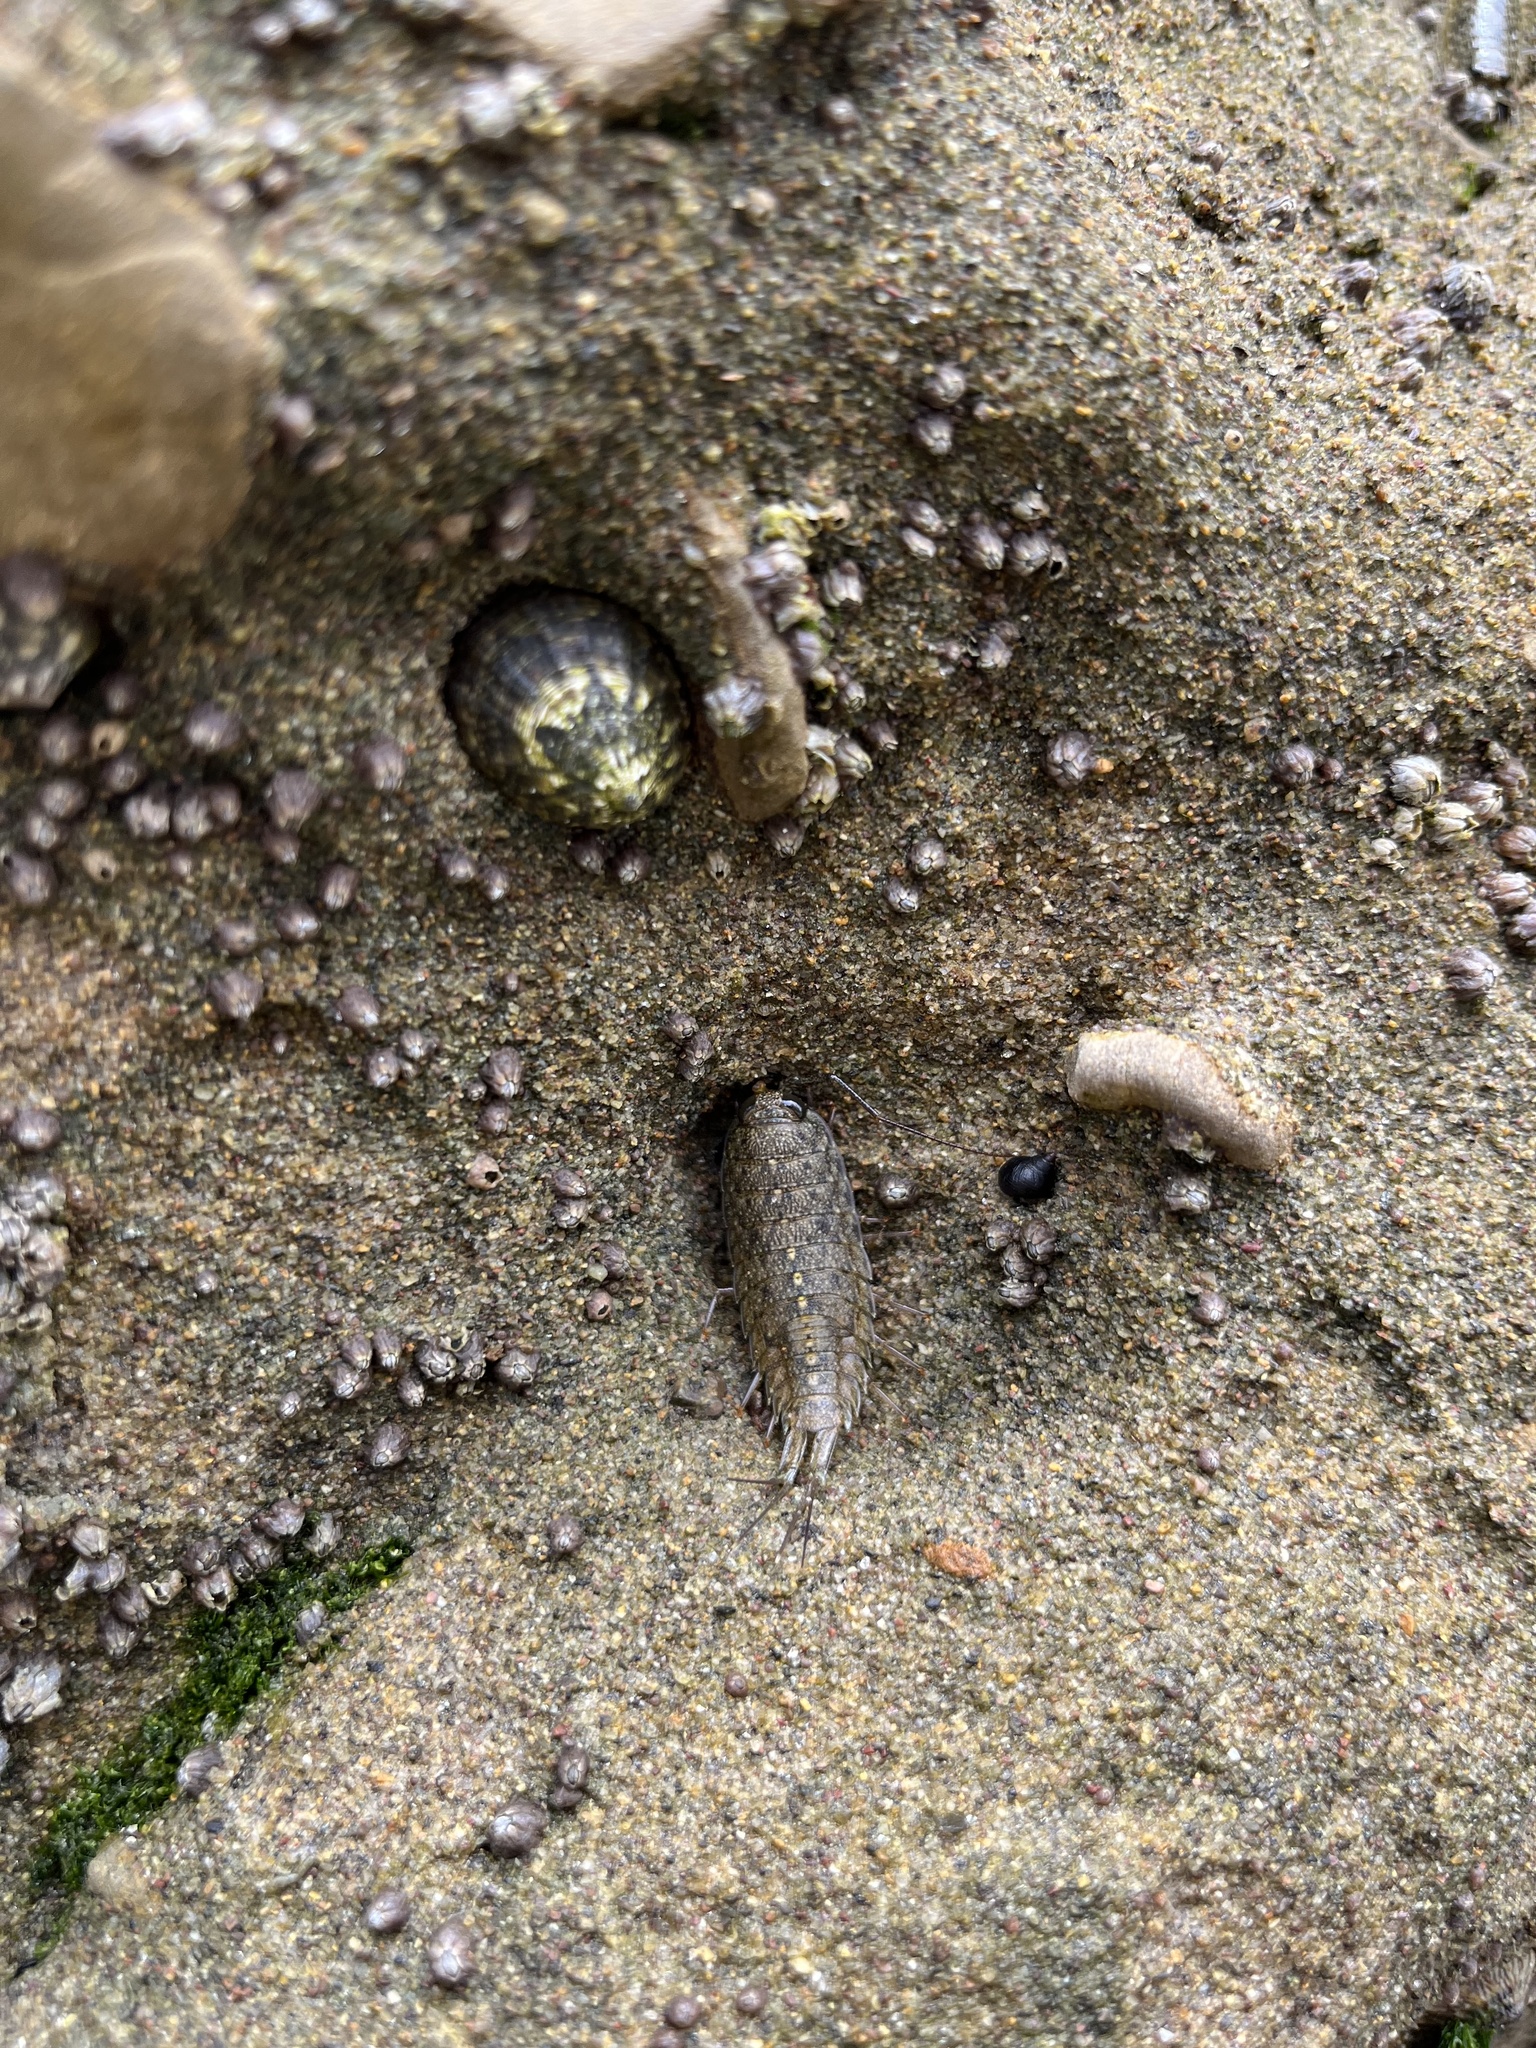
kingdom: Animalia
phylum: Arthropoda
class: Malacostraca
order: Isopoda
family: Ligiidae
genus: Ligia
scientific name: Ligia occidentalis
